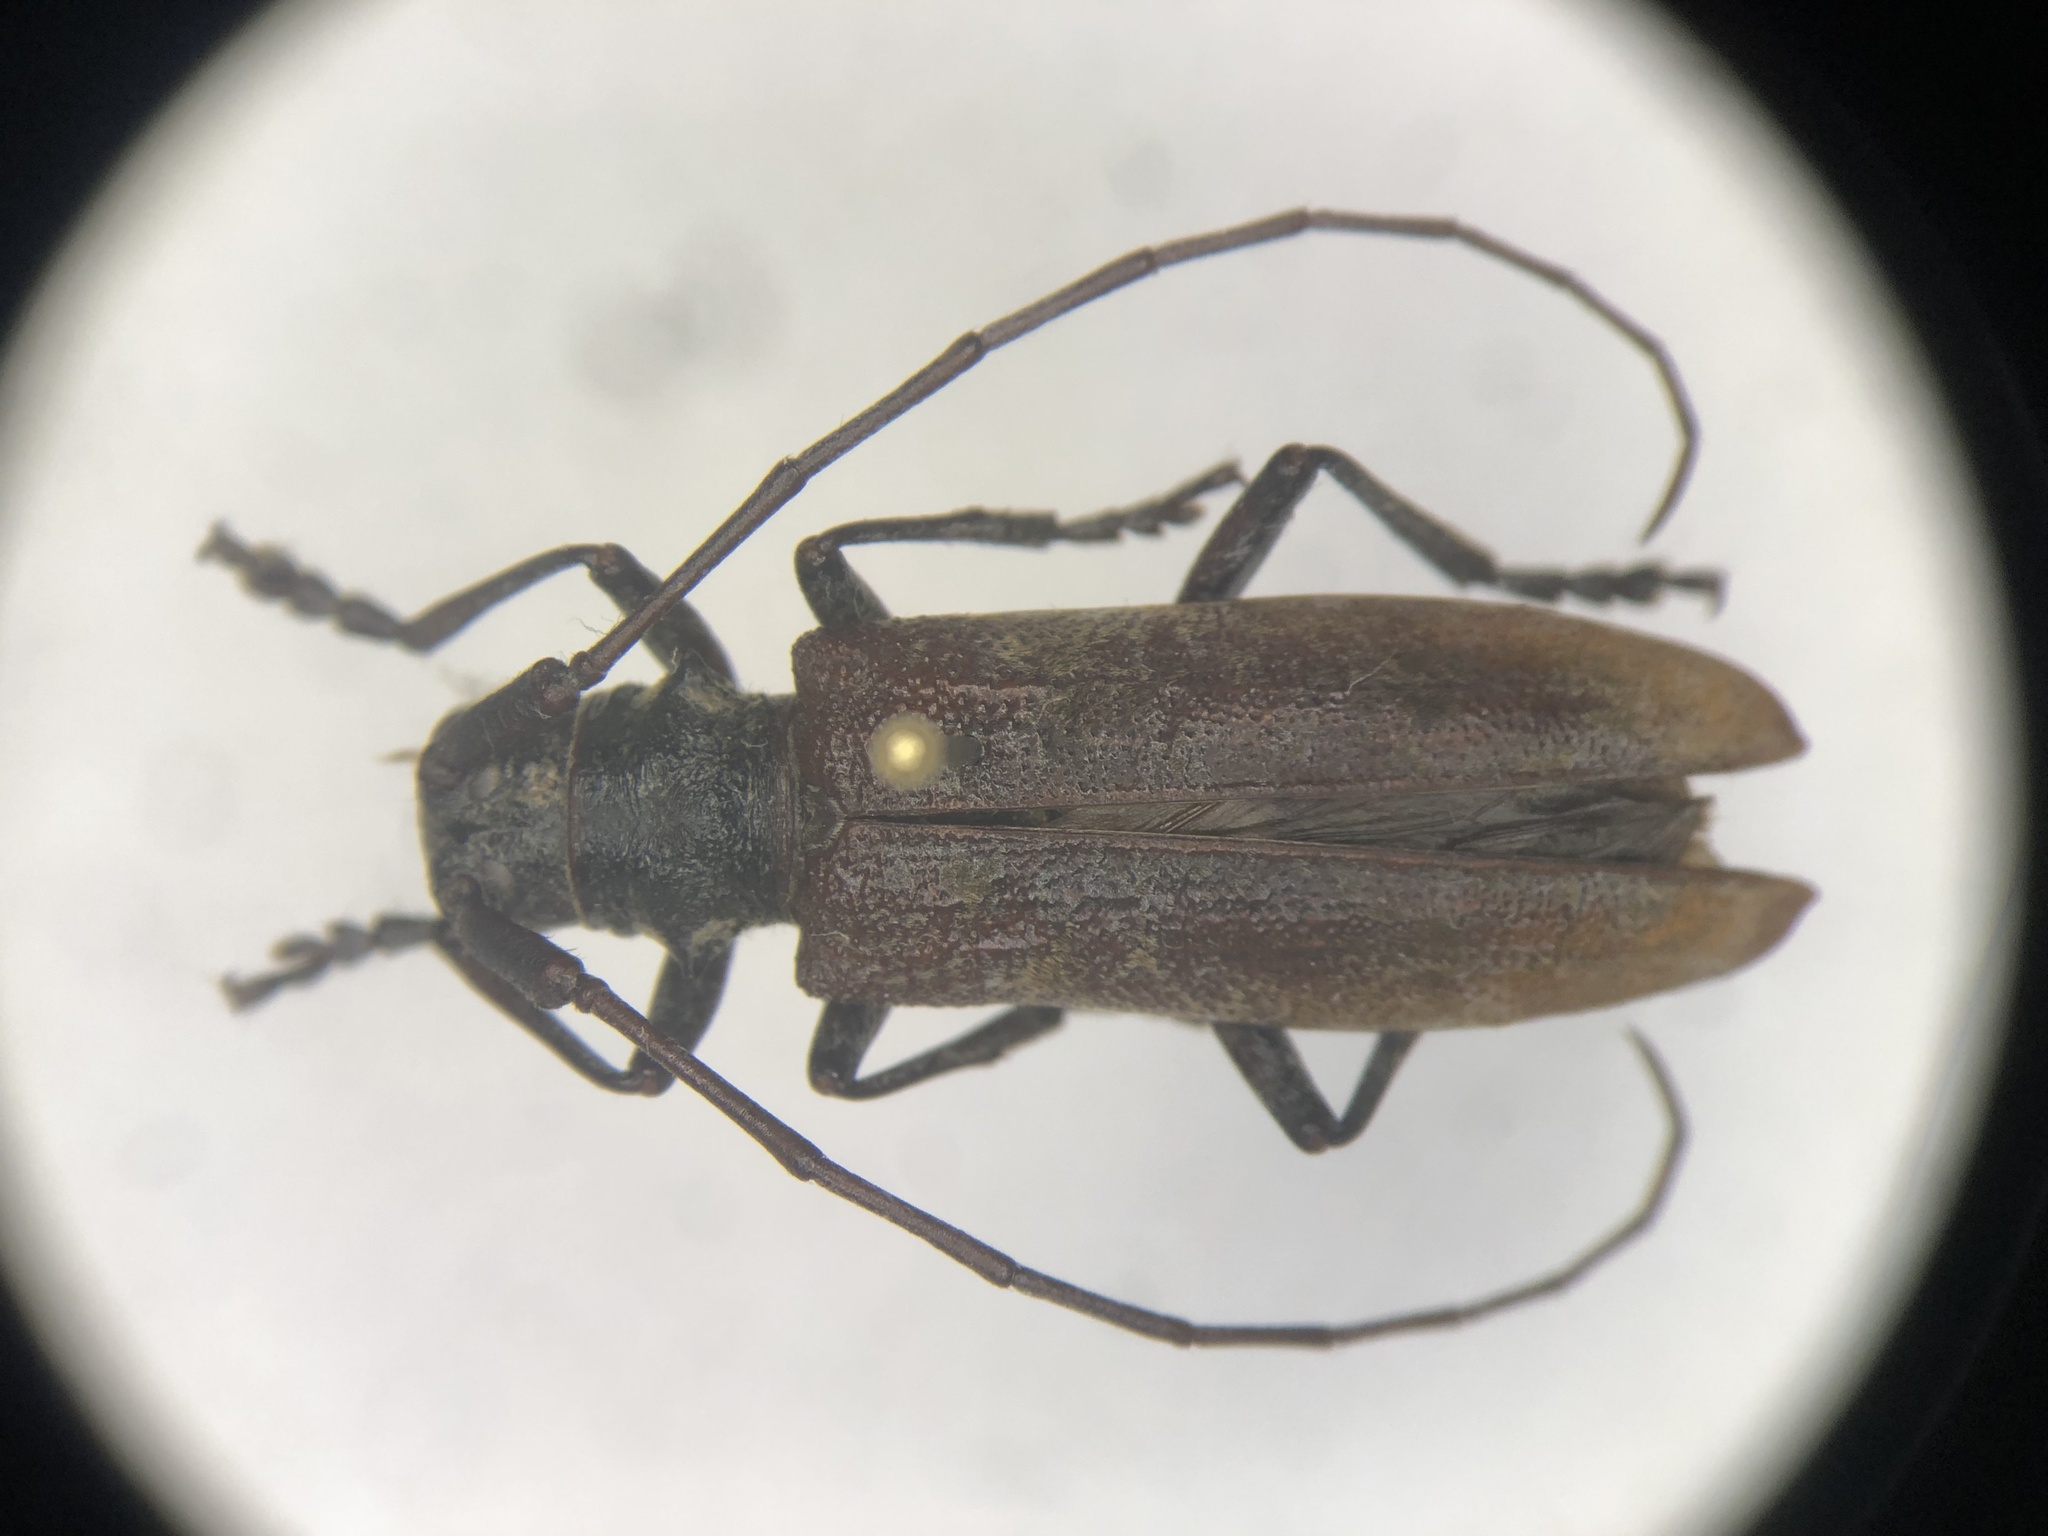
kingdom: Animalia
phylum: Arthropoda
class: Insecta
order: Coleoptera
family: Cerambycidae
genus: Monochamus
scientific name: Monochamus
